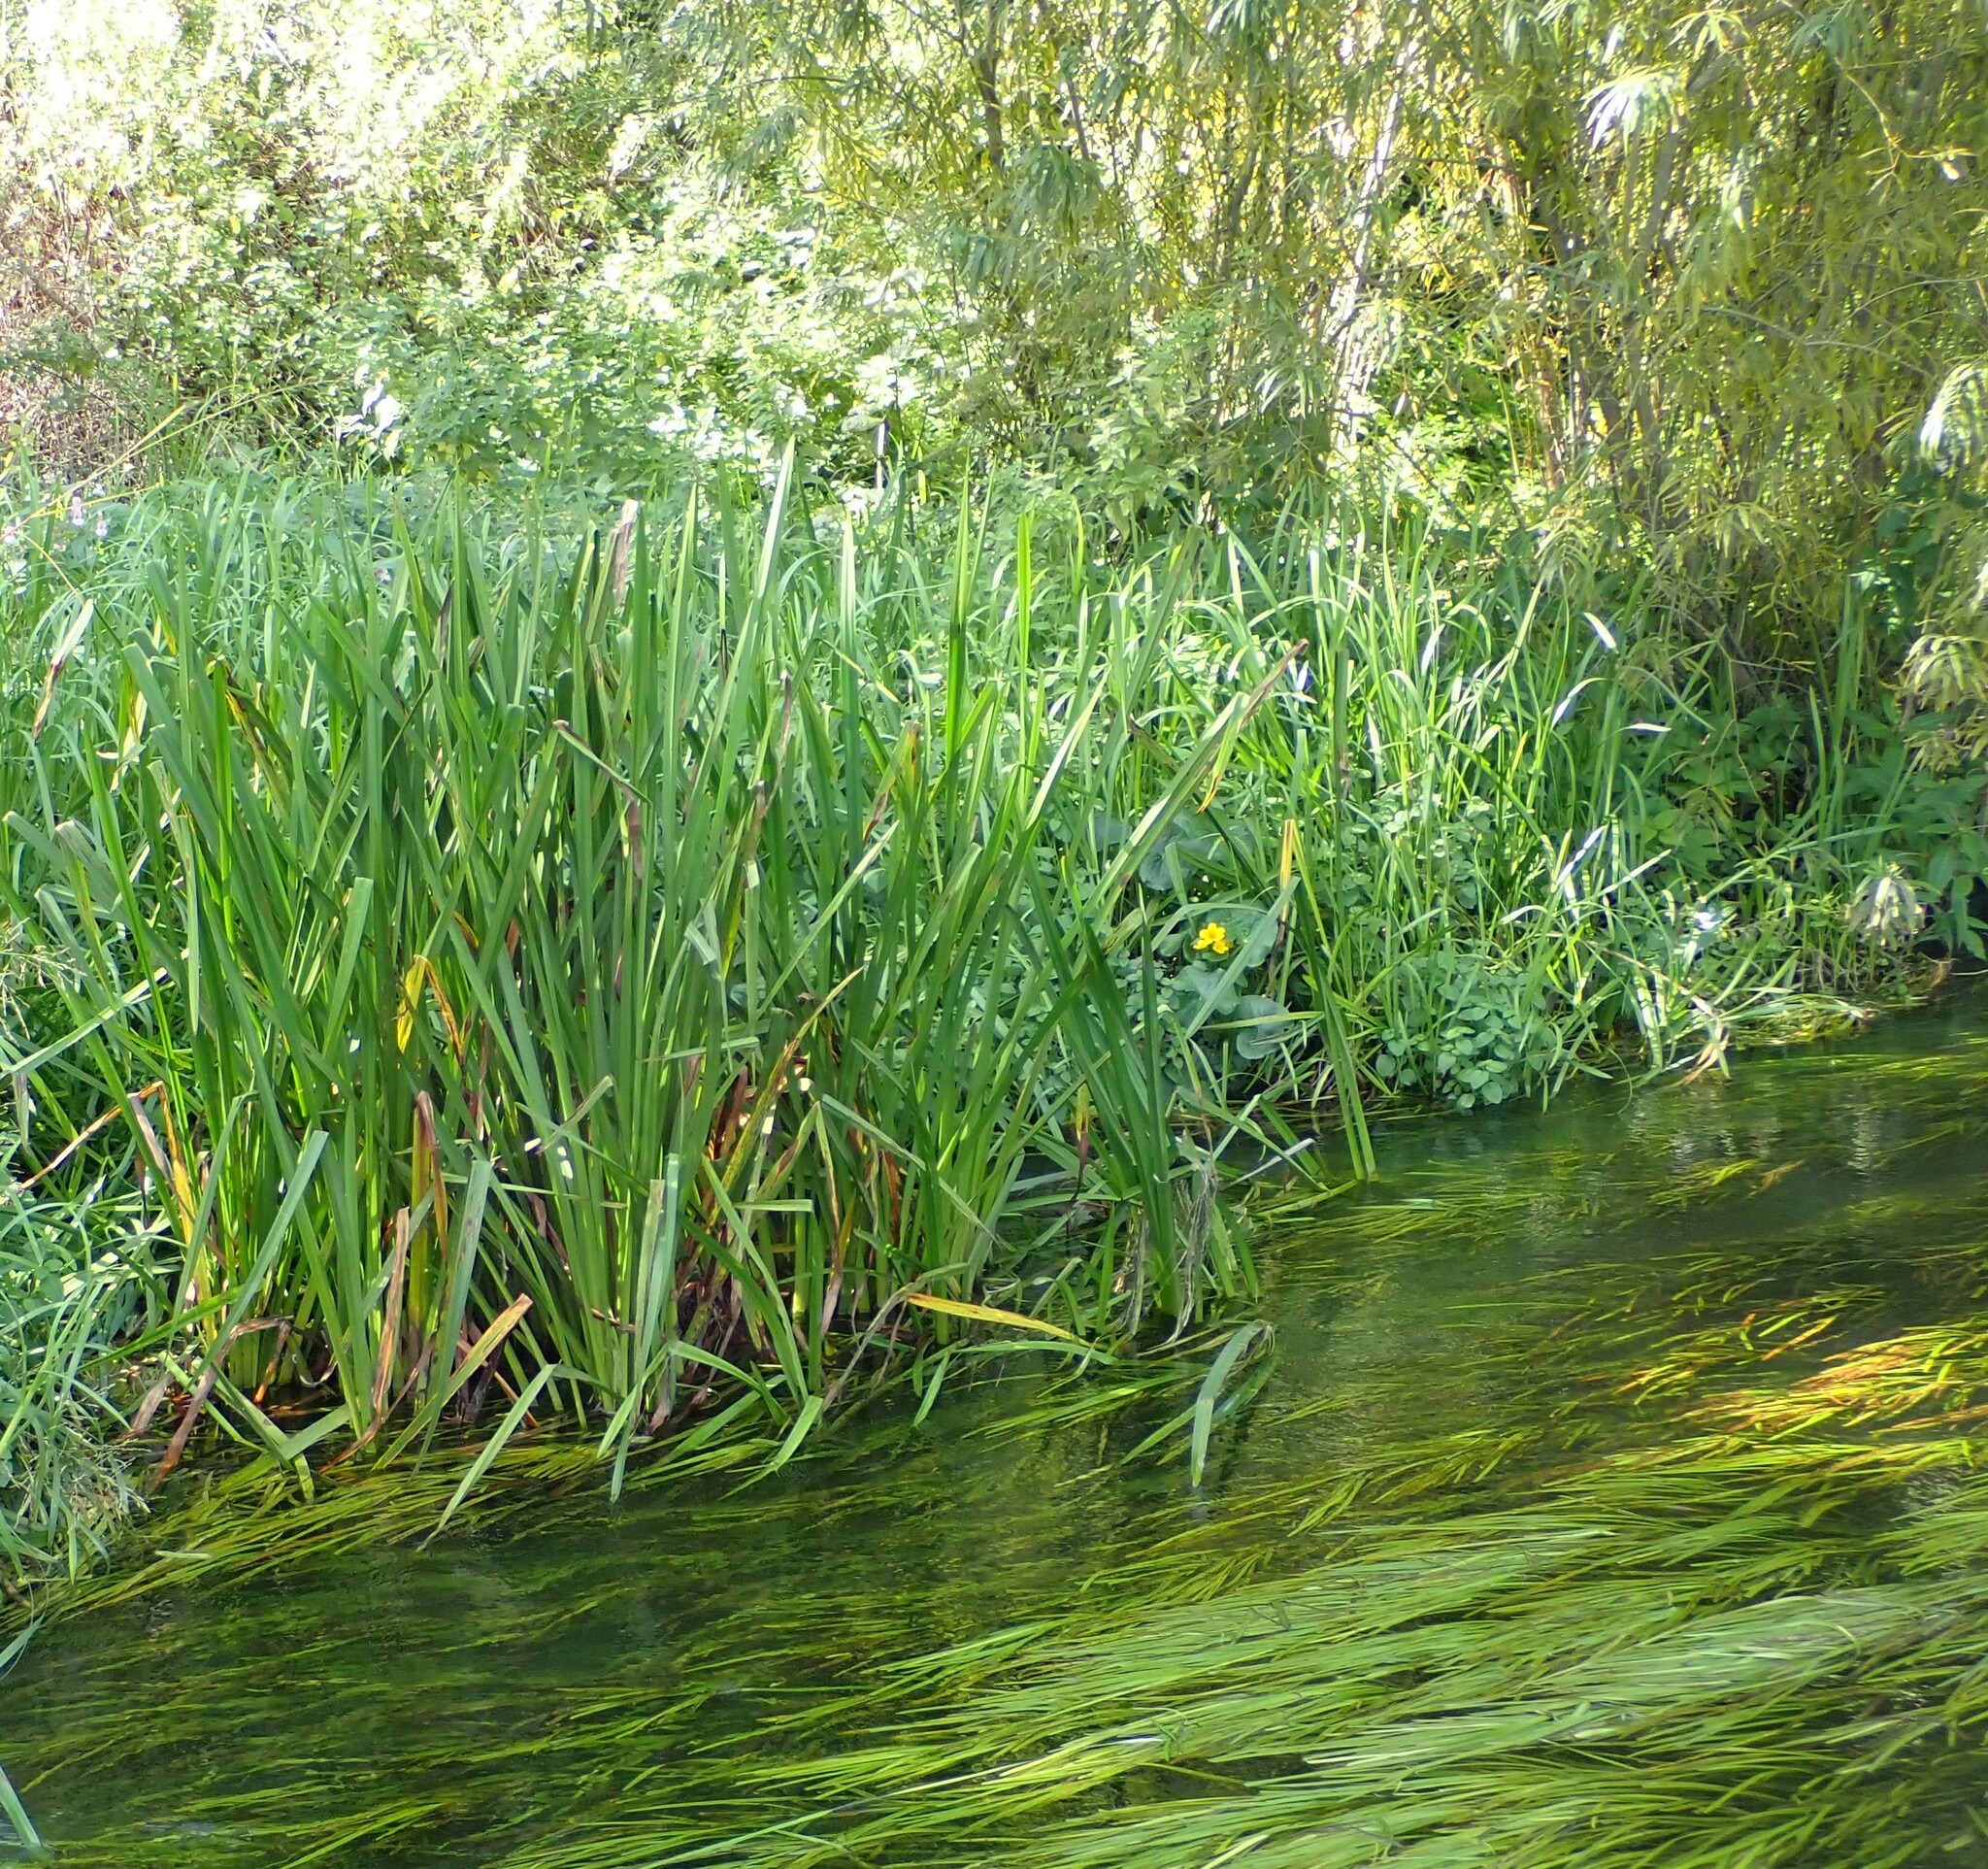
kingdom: Plantae
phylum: Tracheophyta
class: Liliopsida
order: Poales
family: Typhaceae
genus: Sparganium
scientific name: Sparganium erectum
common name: Branched bur-reed
